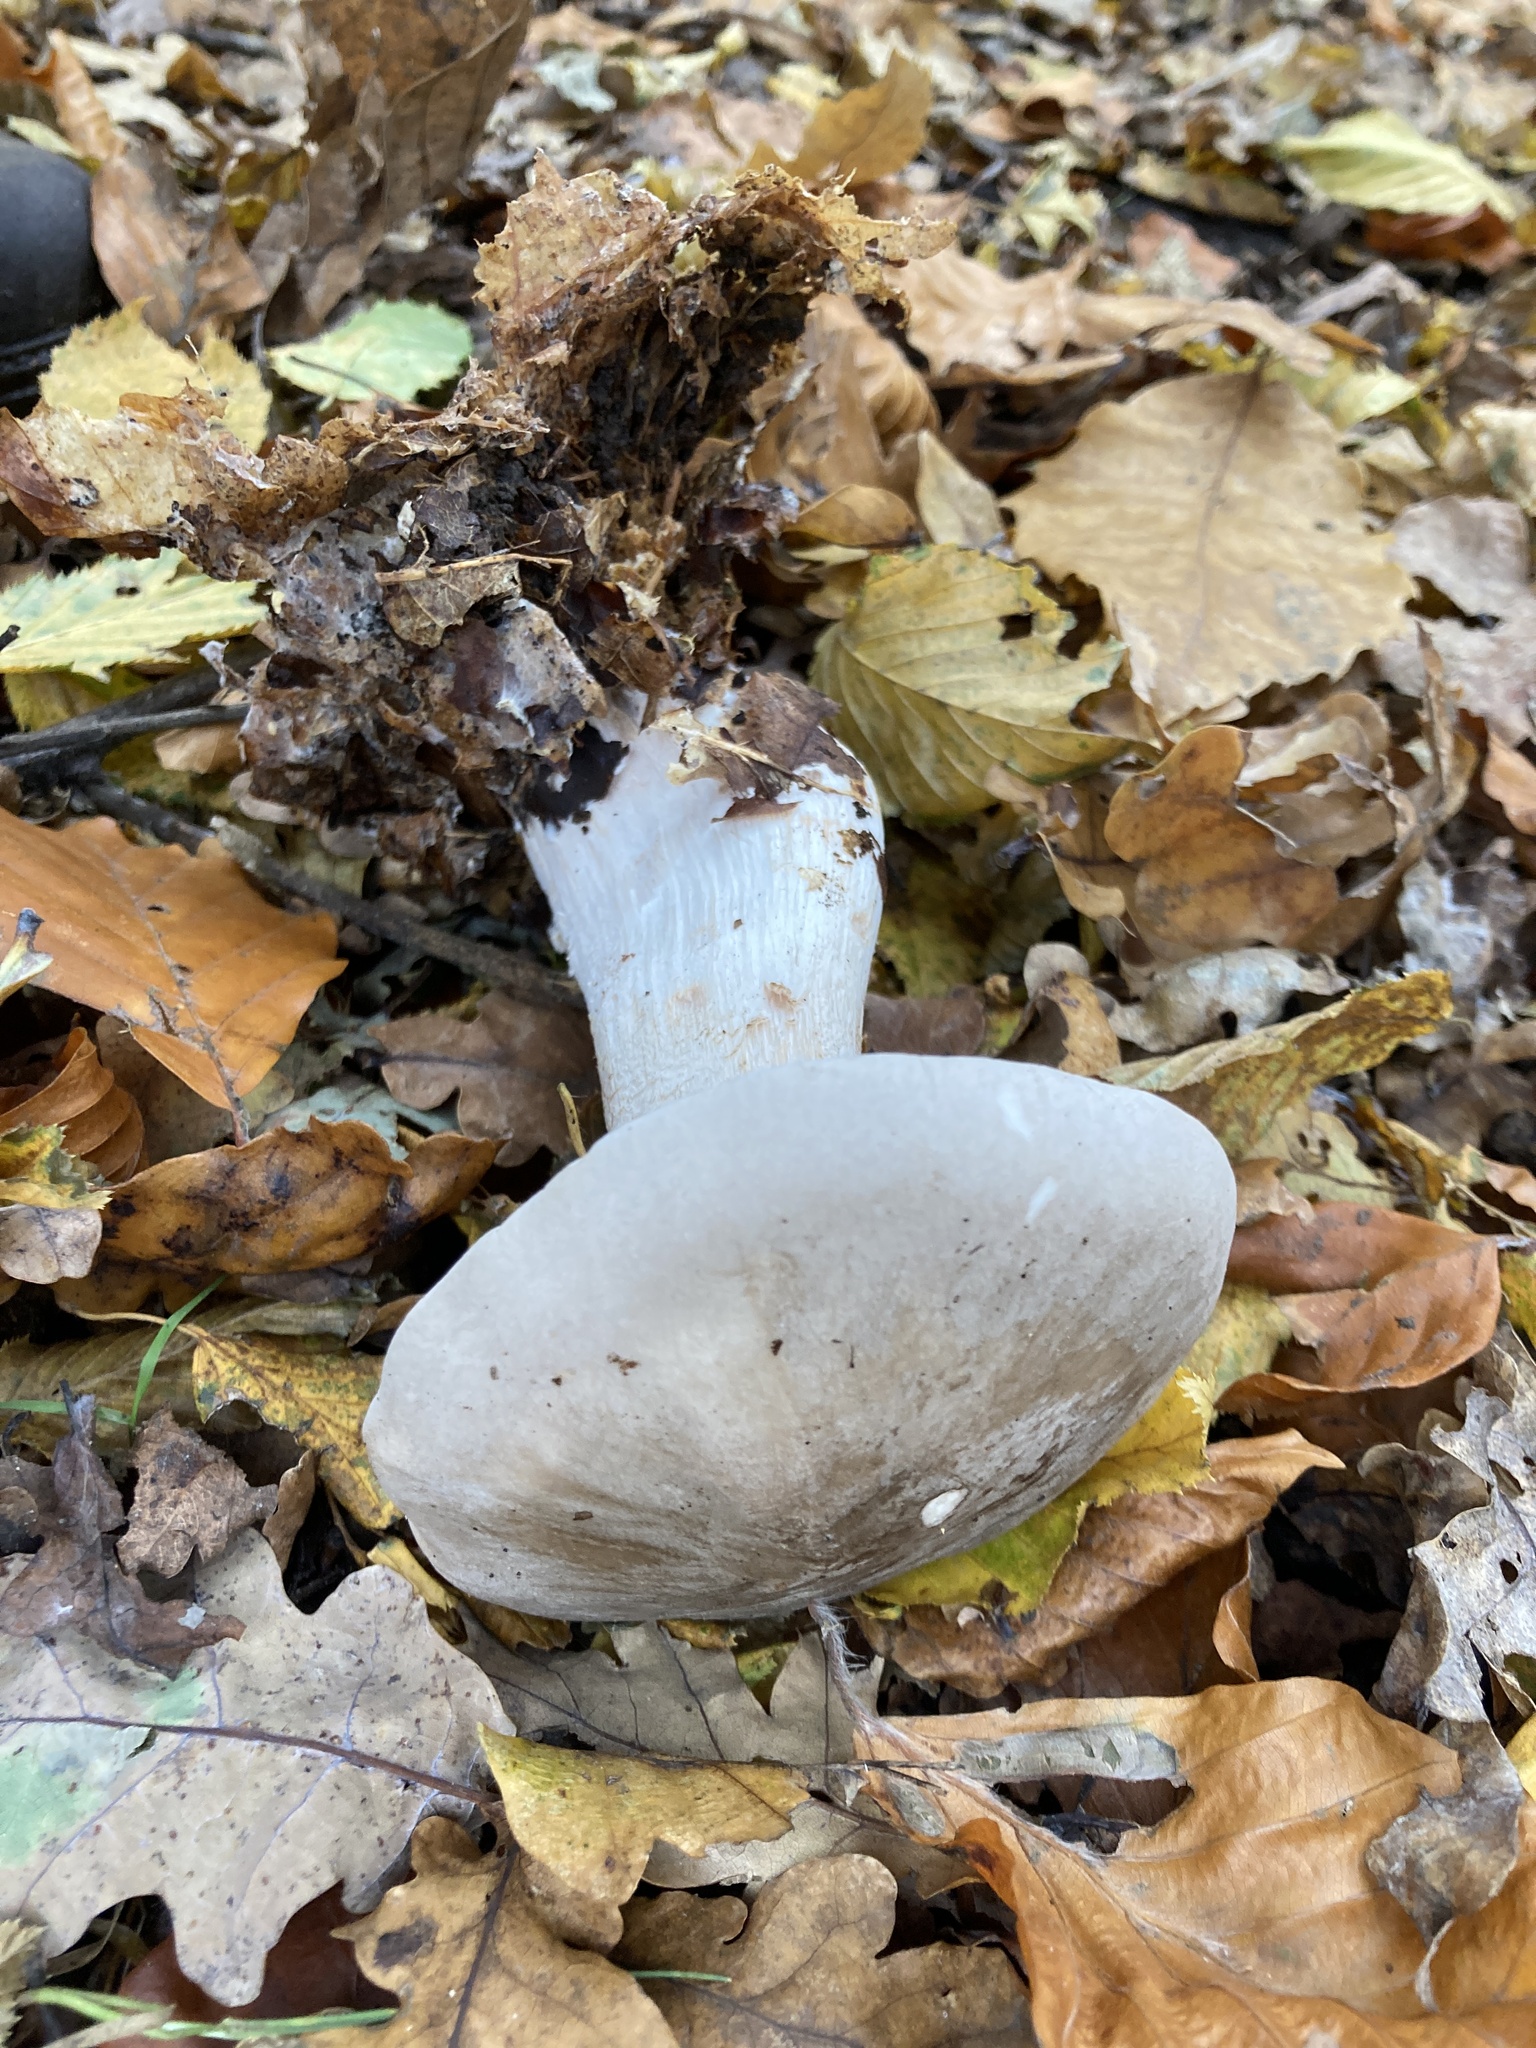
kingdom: Fungi
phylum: Basidiomycota
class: Agaricomycetes
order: Agaricales
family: Tricholomataceae
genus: Clitocybe
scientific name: Clitocybe nebularis
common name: Clouded agaric
